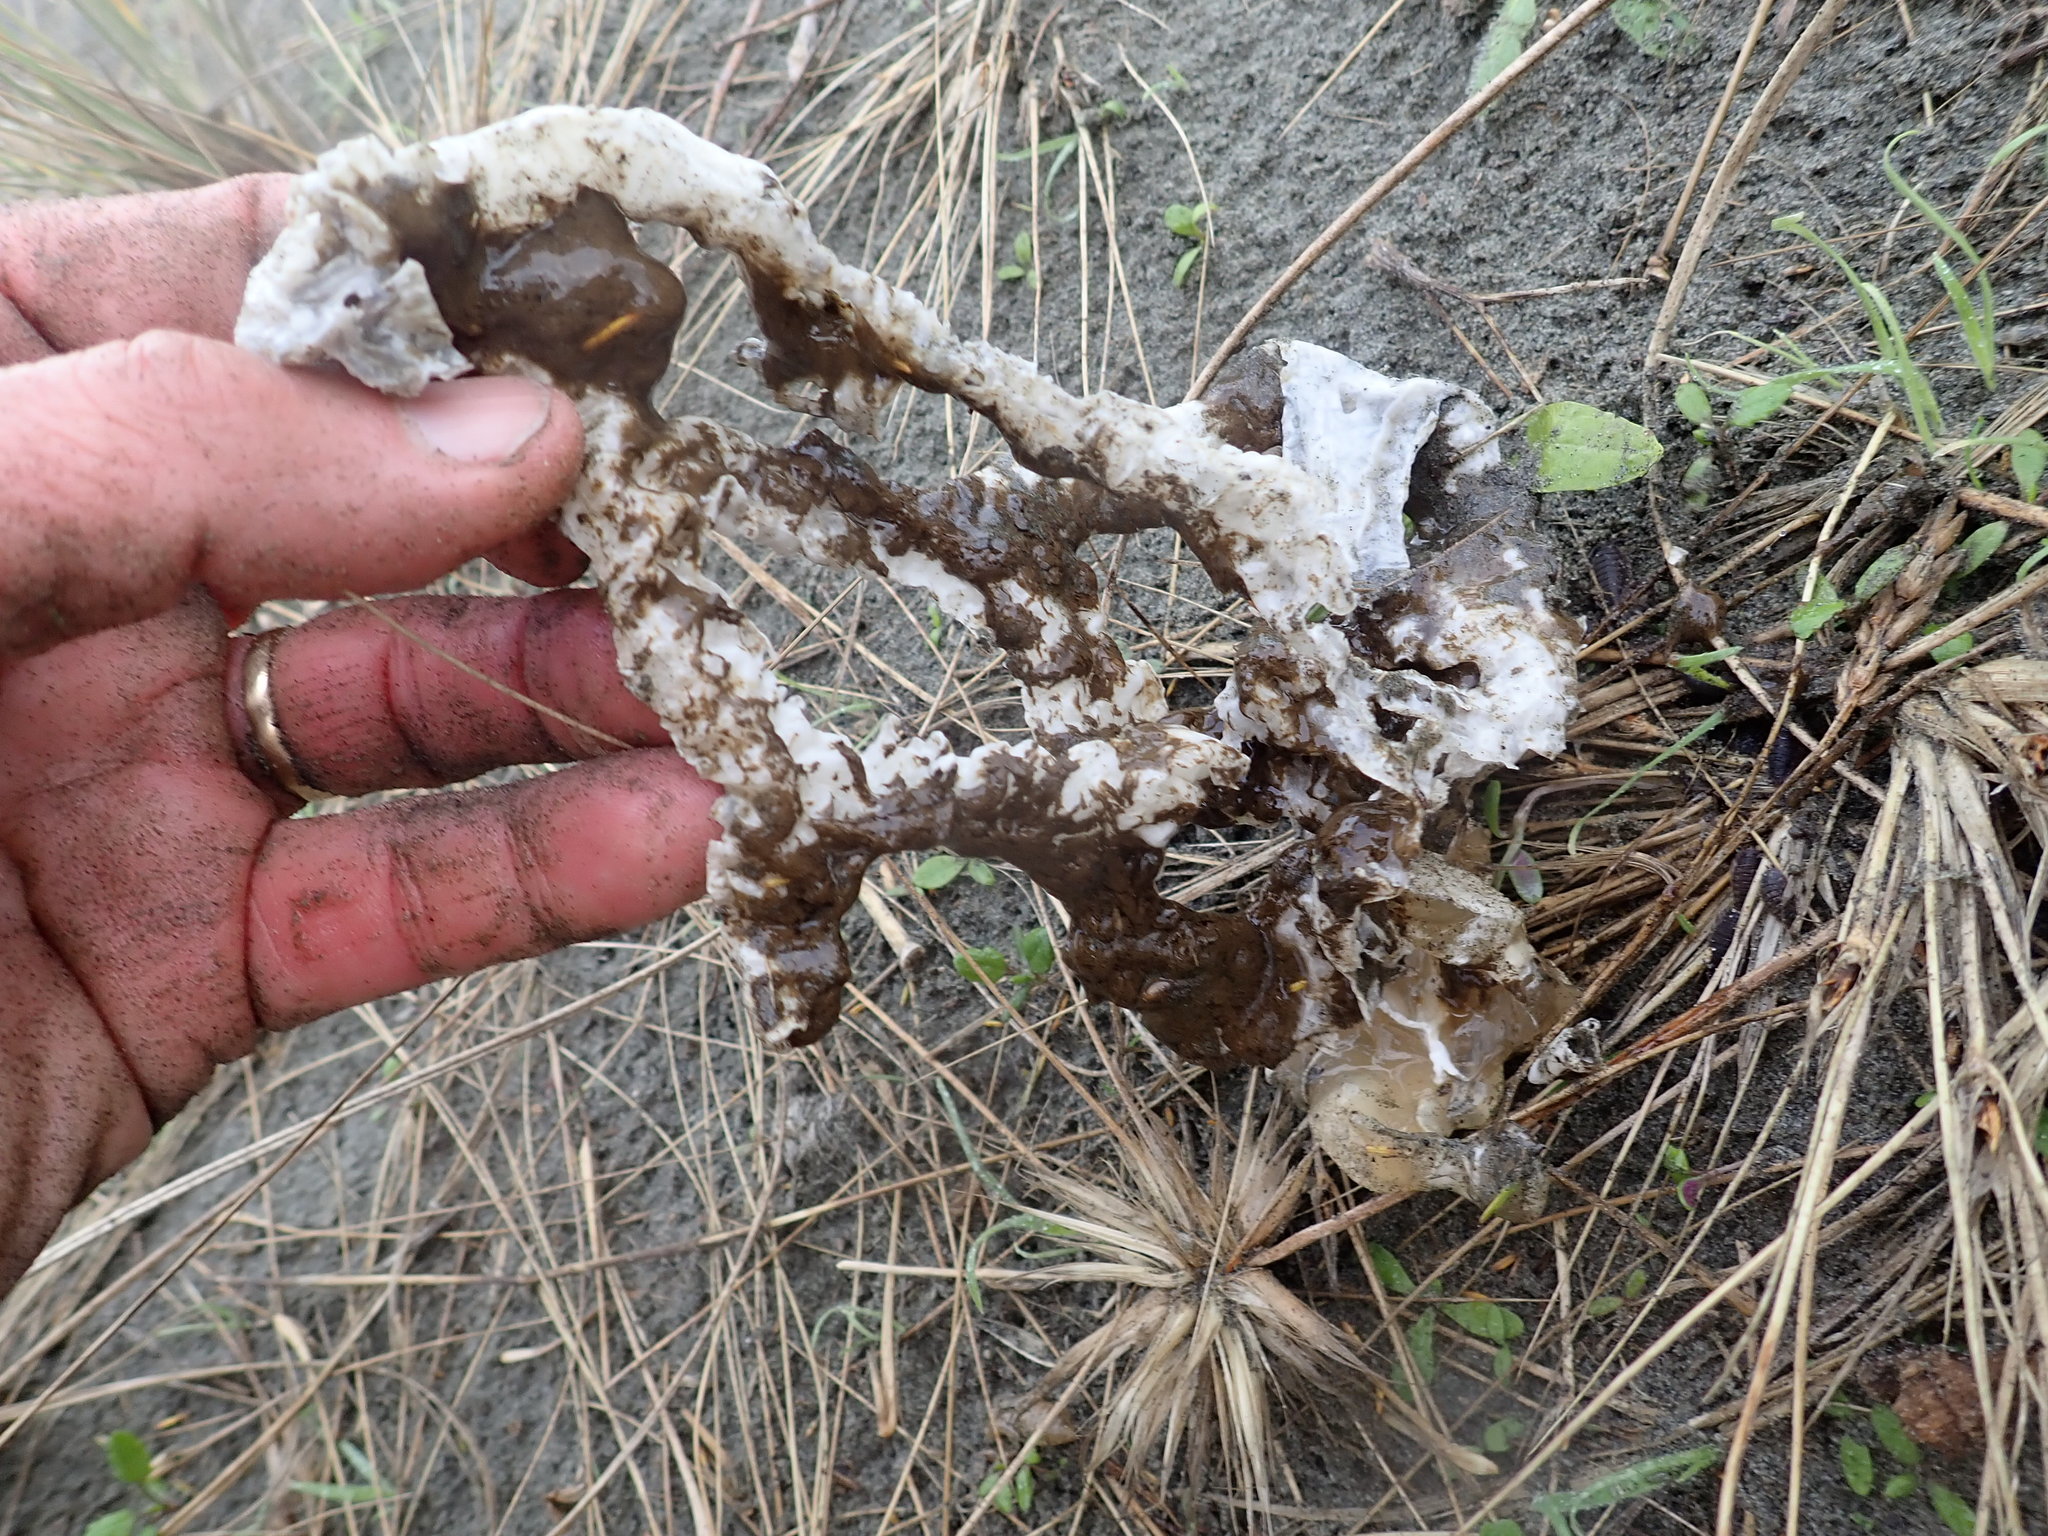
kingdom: Fungi
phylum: Basidiomycota
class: Agaricomycetes
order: Phallales
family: Phallaceae
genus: Ileodictyon
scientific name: Ileodictyon cibarium
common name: Basket fungus
